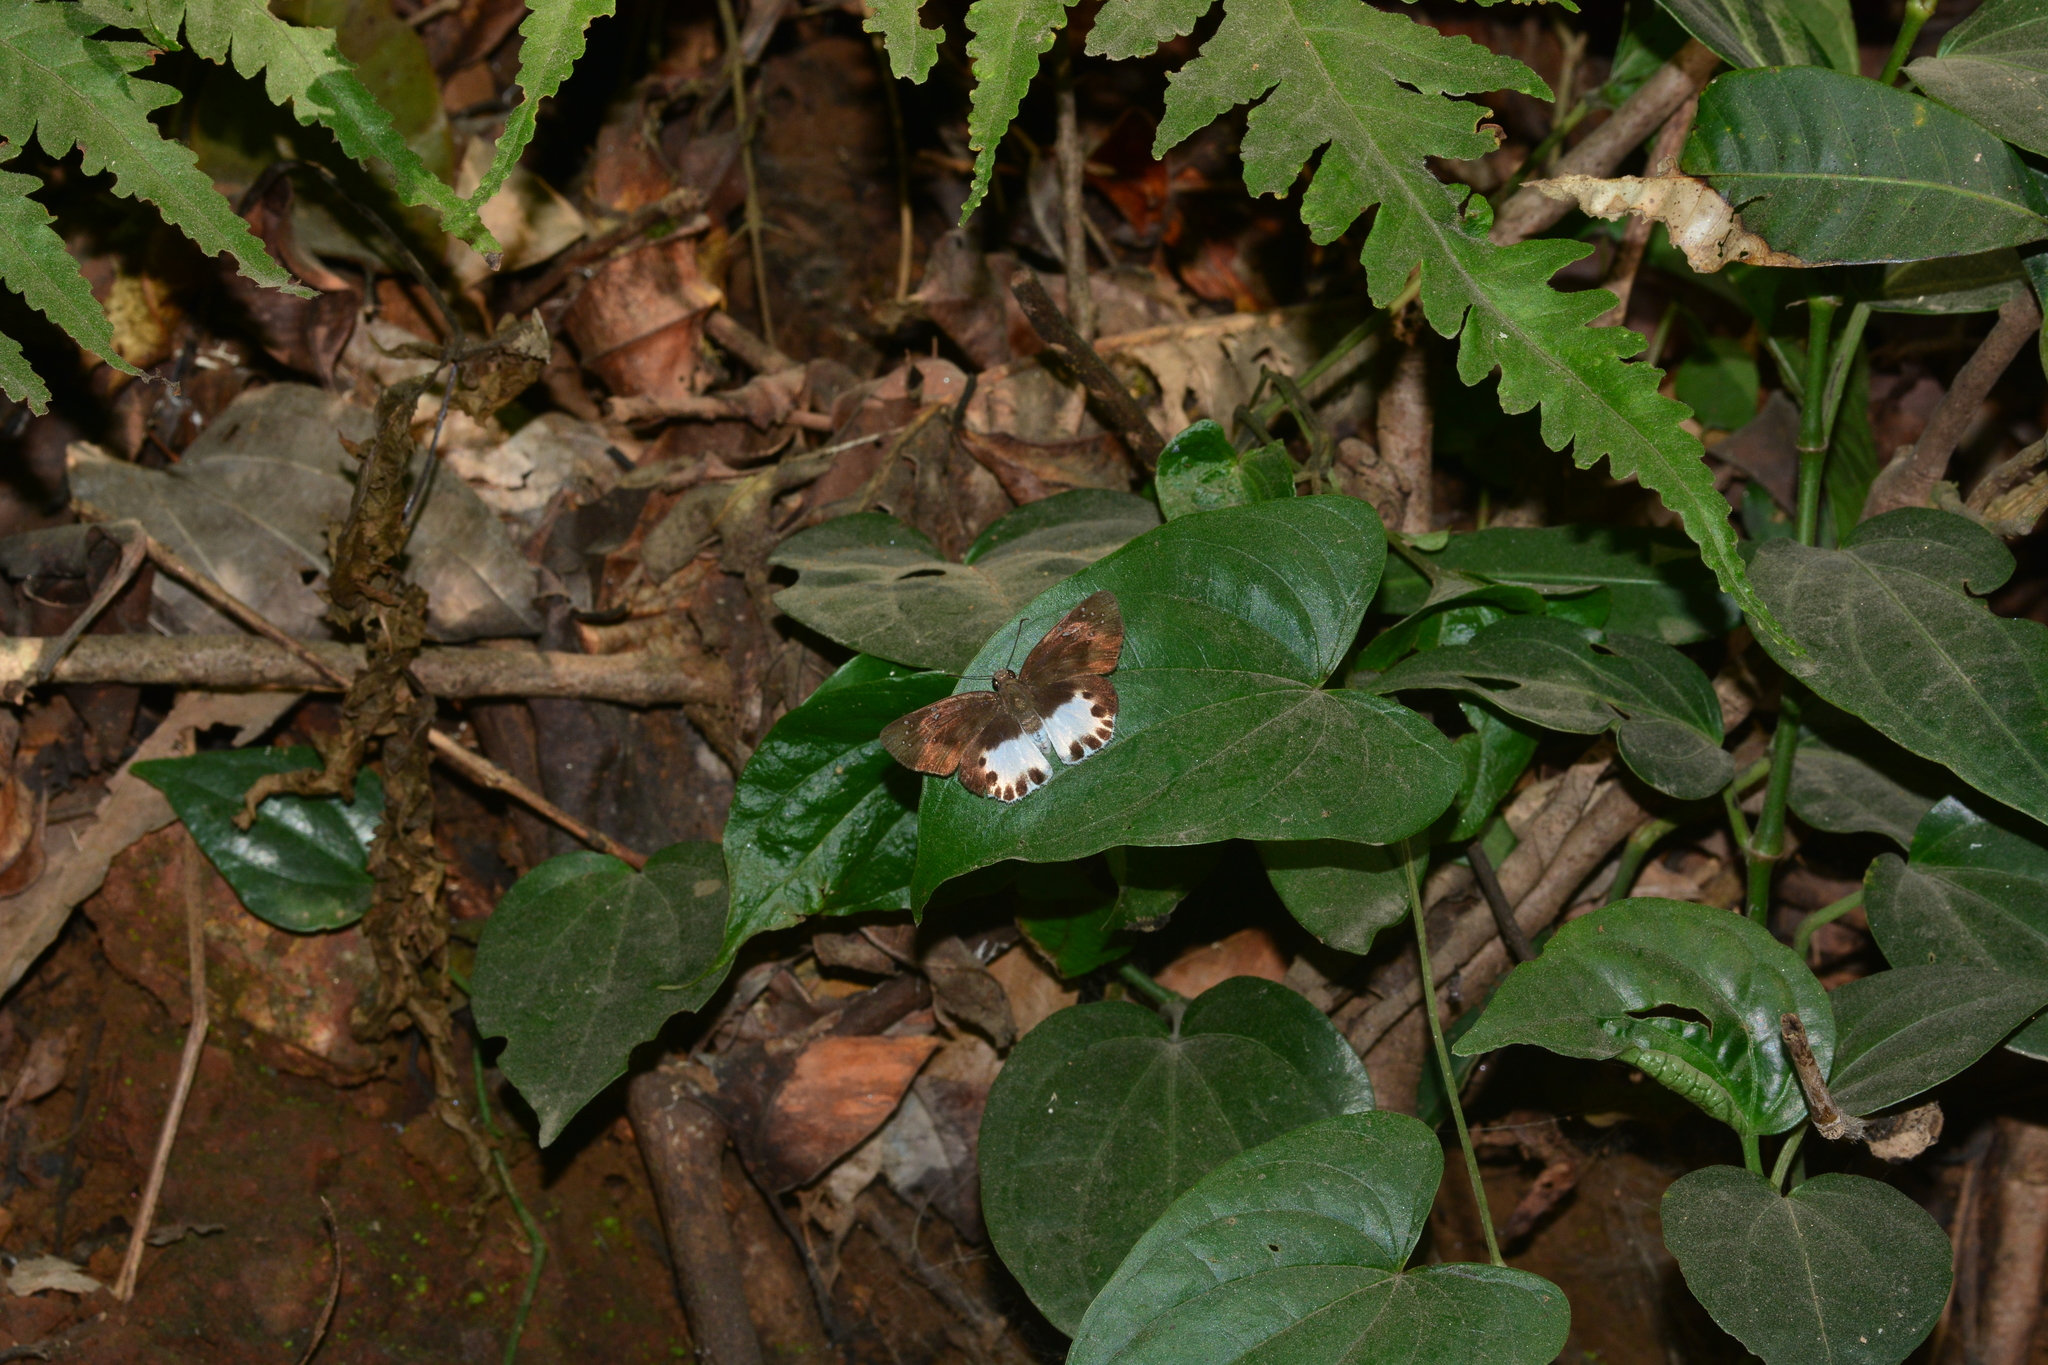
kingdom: Animalia
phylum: Arthropoda
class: Insecta
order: Lepidoptera
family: Hesperiidae
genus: Tagiades
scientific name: Tagiades litigiosa
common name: Water snow flat
